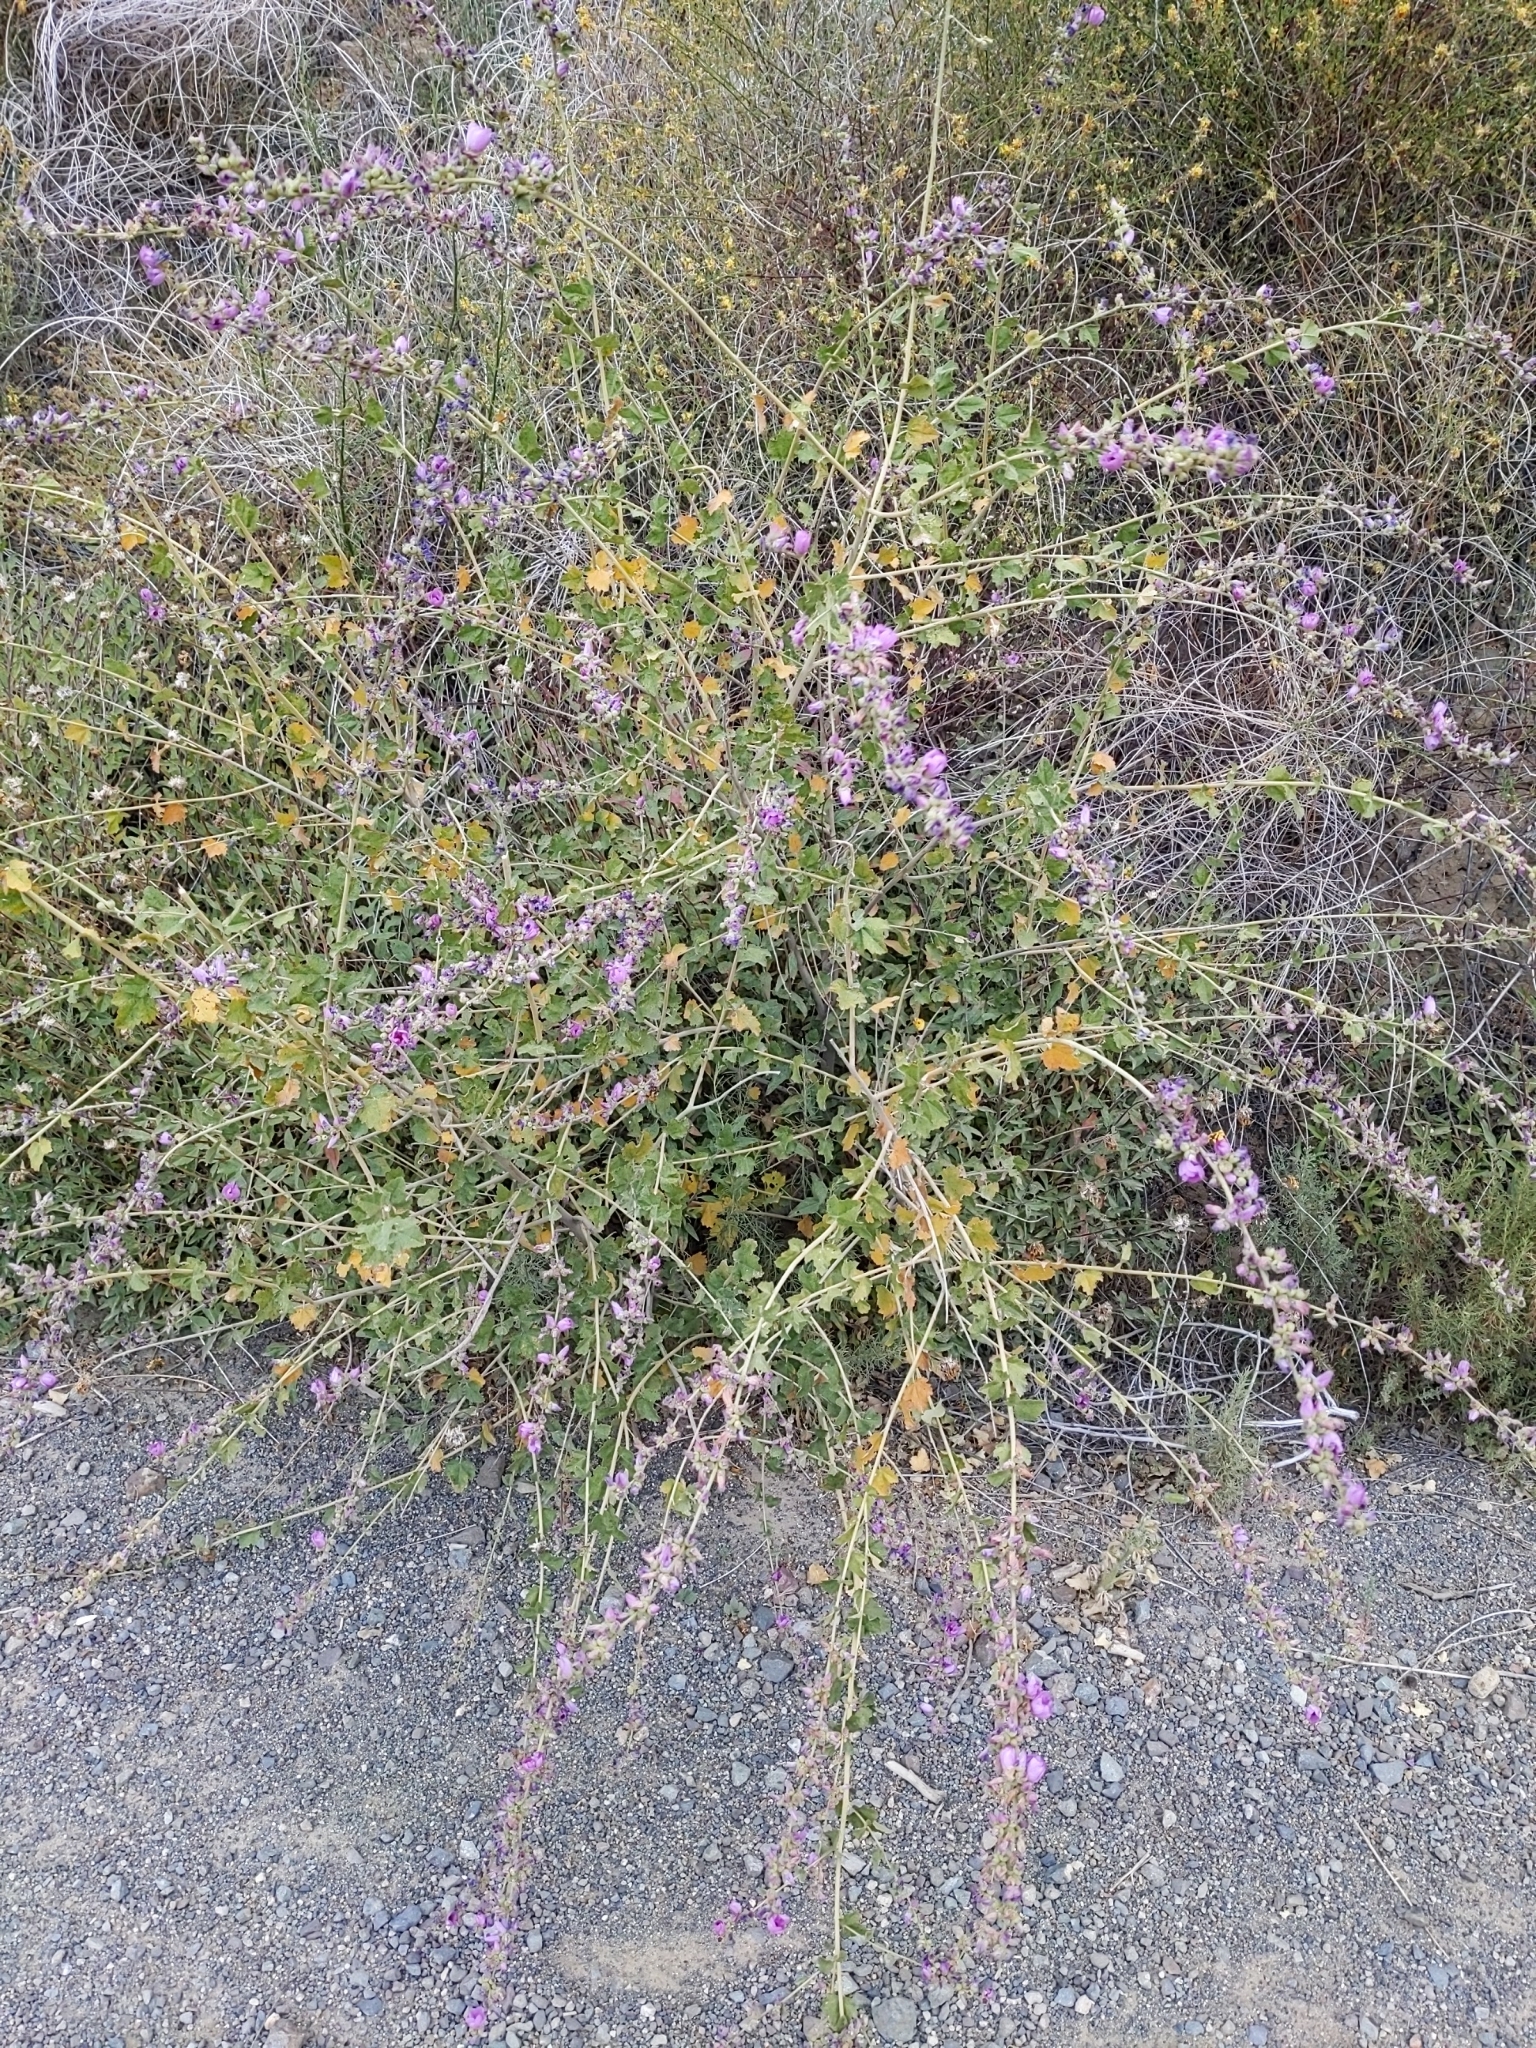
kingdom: Plantae
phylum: Tracheophyta
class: Magnoliopsida
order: Malvales
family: Malvaceae
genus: Malacothamnus
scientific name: Malacothamnus fasciculatus
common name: Sant cruz island bush-mallow
